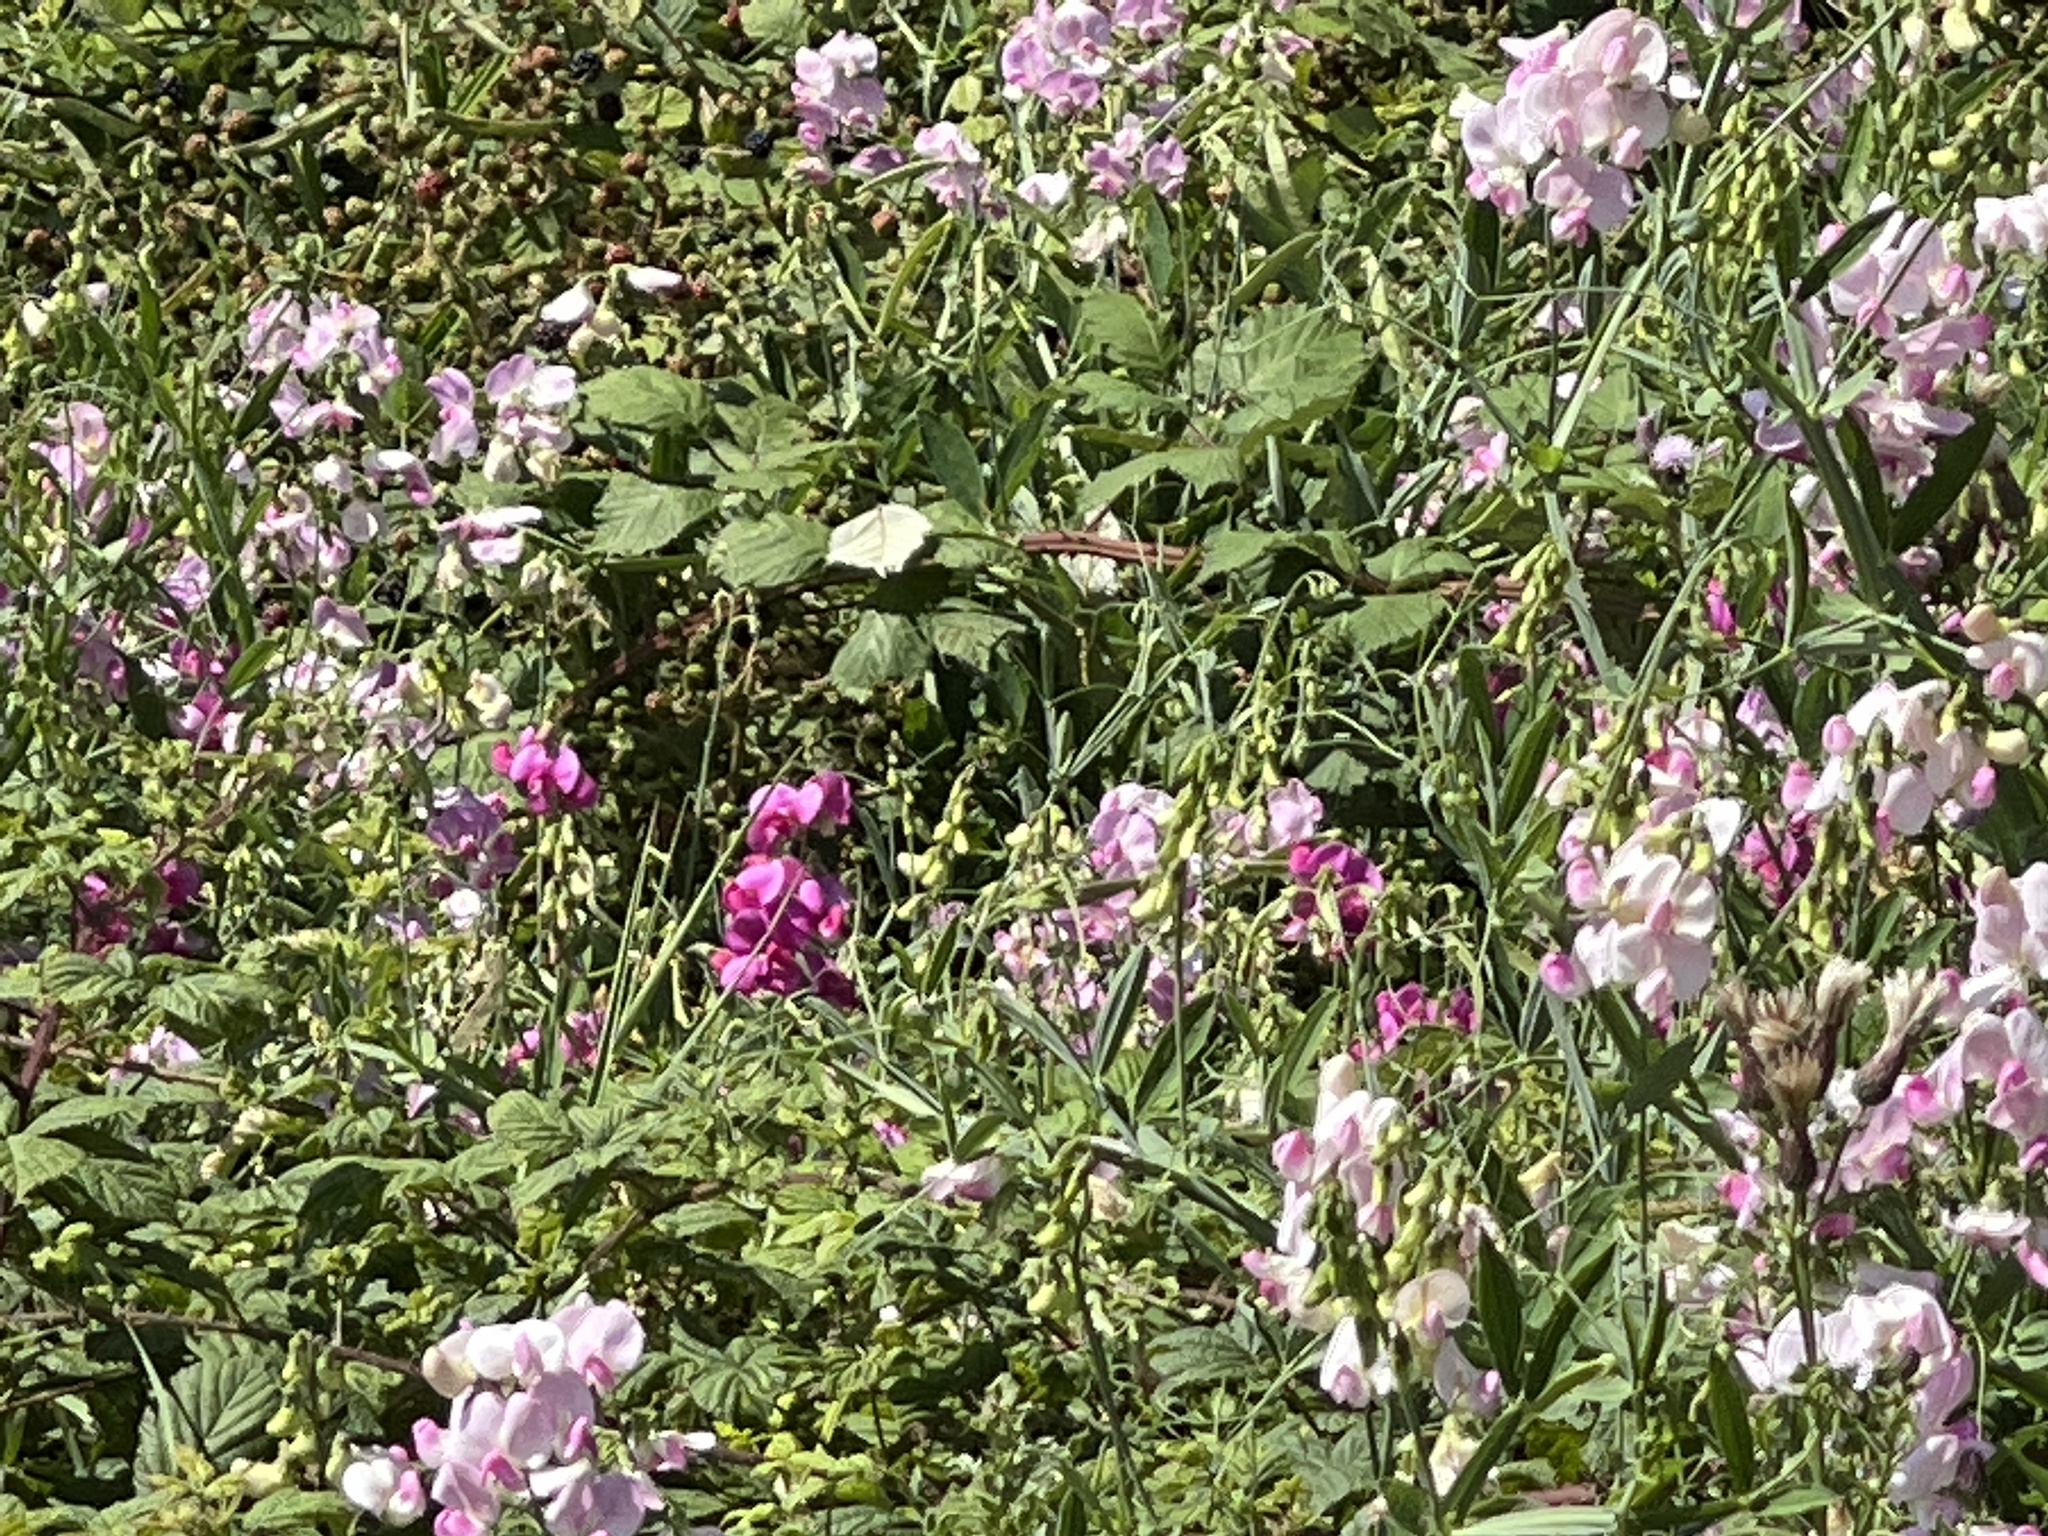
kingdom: Plantae
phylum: Tracheophyta
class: Magnoliopsida
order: Fabales
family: Fabaceae
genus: Lathyrus
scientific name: Lathyrus latifolius
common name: Perennial pea
